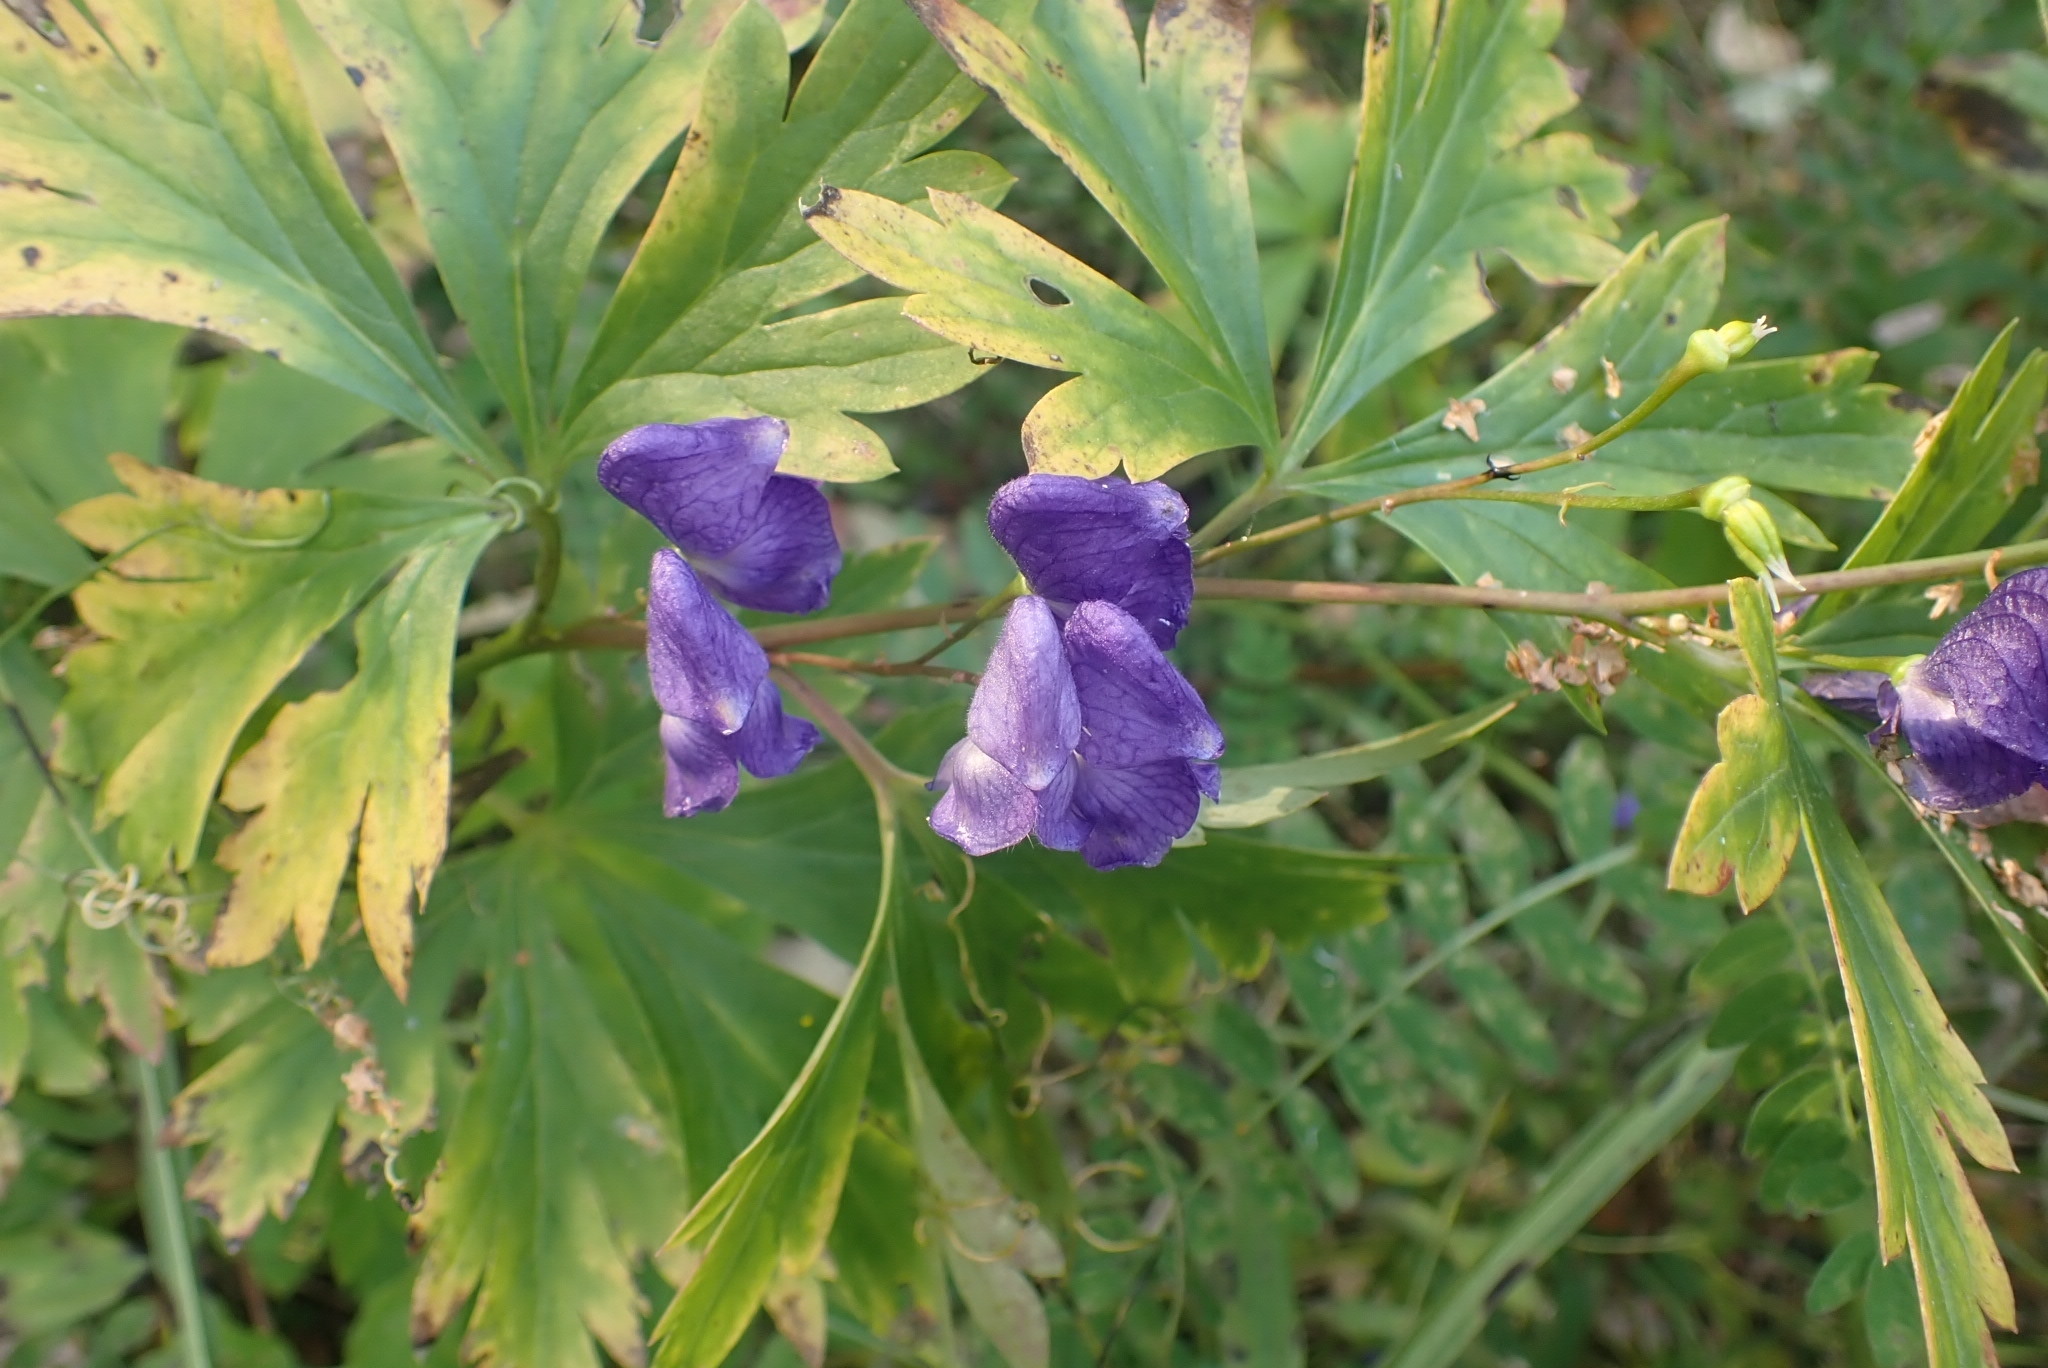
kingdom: Plantae
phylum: Tracheophyta
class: Magnoliopsida
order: Ranunculales
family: Ranunculaceae
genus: Aconitum
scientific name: Aconitum volubile
